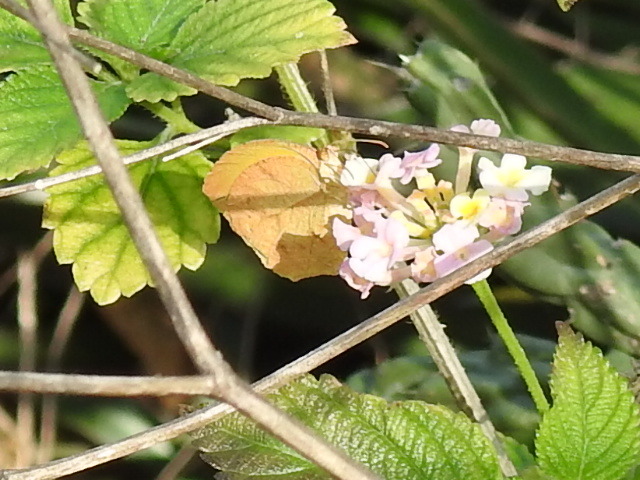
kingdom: Animalia
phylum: Arthropoda
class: Insecta
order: Lepidoptera
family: Pieridae
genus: Abaeis
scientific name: Abaeis nicippe
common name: Sleepy orange
